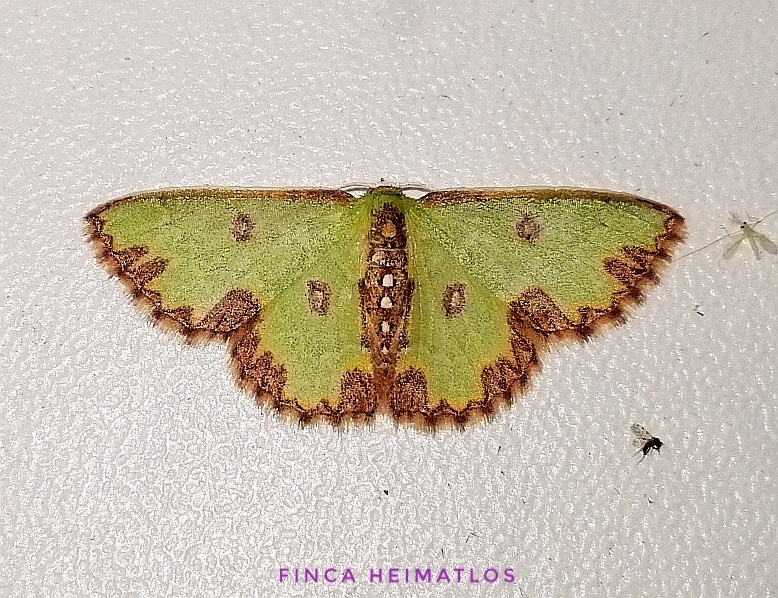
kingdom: Animalia
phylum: Arthropoda
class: Insecta
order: Lepidoptera
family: Geometridae
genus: Synchlora
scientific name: Synchlora decorata
